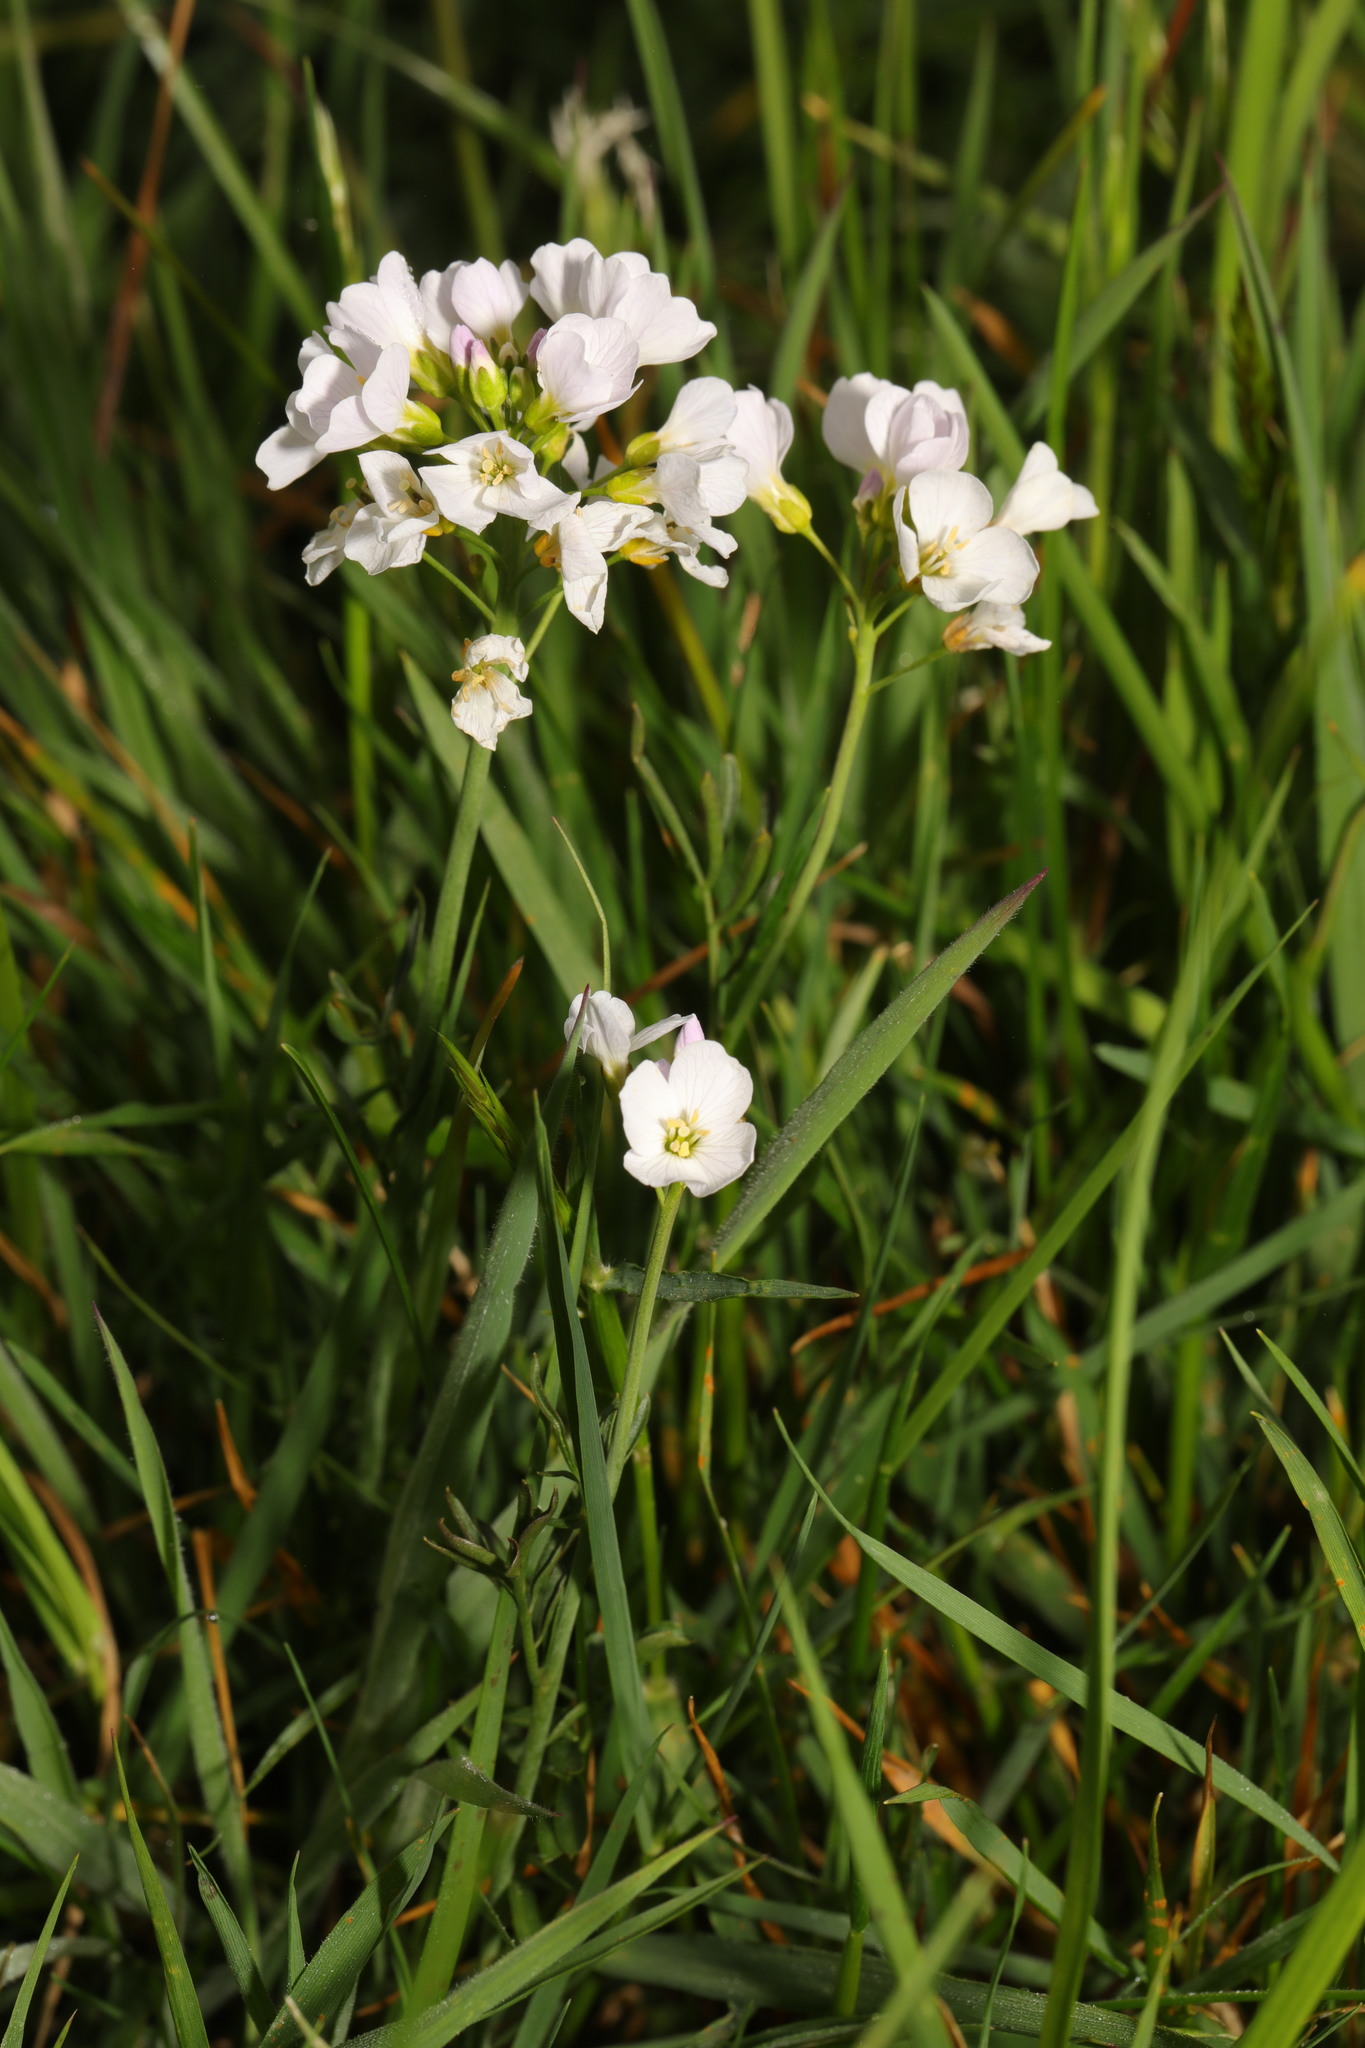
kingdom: Plantae
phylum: Tracheophyta
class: Magnoliopsida
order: Brassicales
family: Brassicaceae
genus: Cardamine
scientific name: Cardamine pratensis
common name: Cuckoo flower
